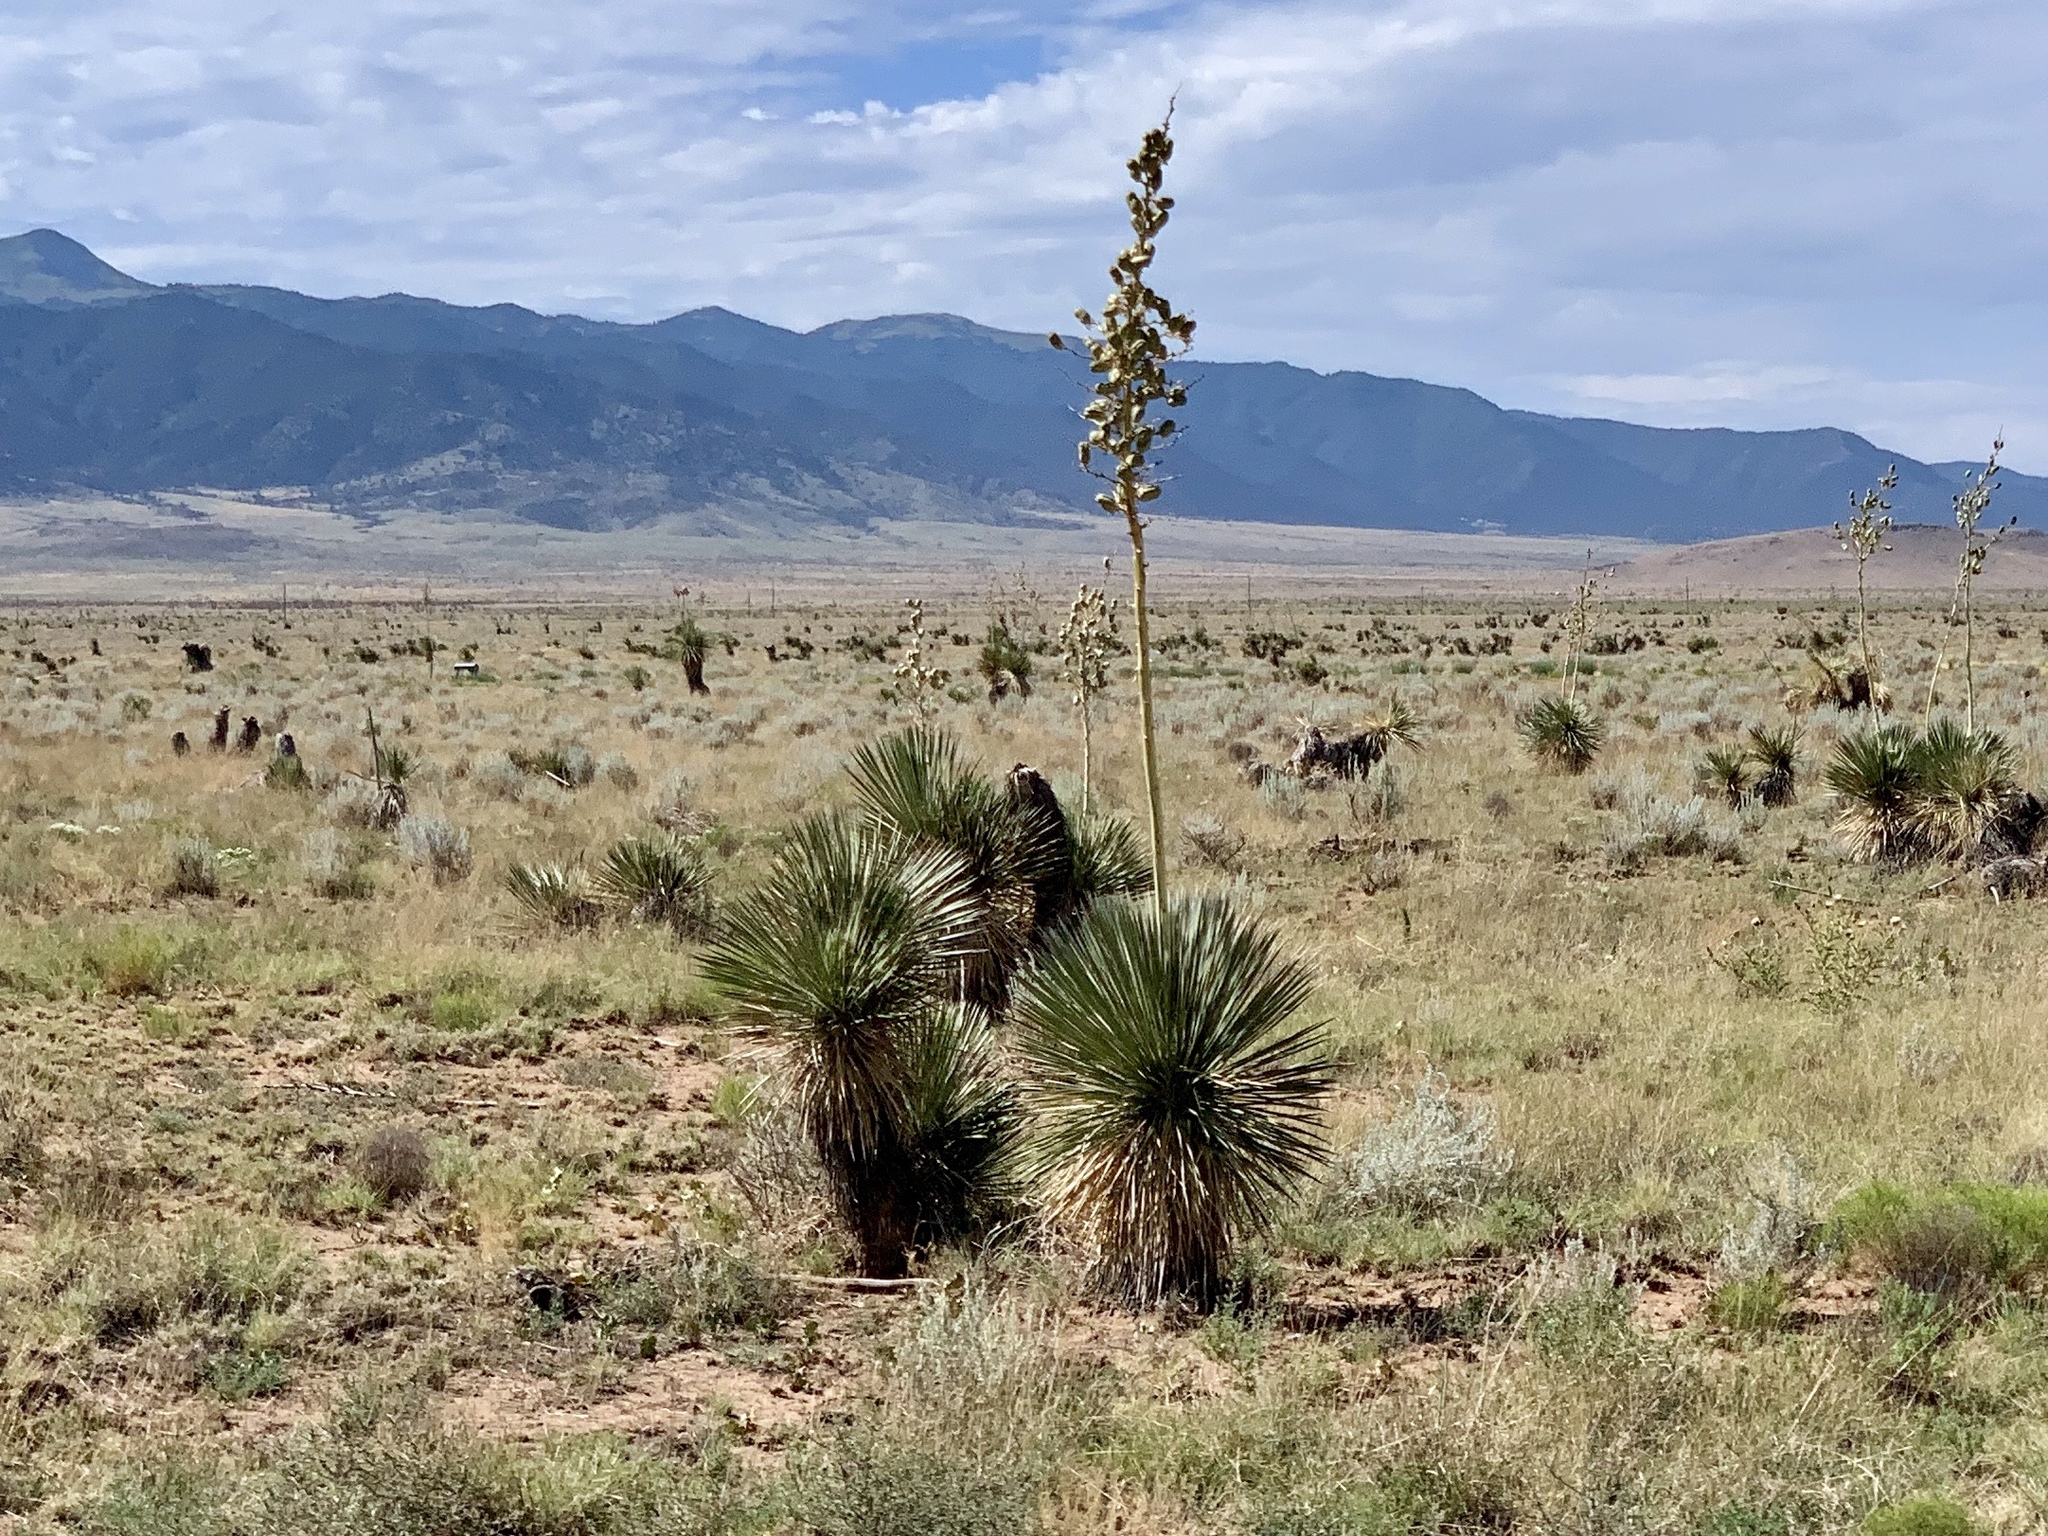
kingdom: Plantae
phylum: Tracheophyta
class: Liliopsida
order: Asparagales
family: Asparagaceae
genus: Yucca
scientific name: Yucca elata
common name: Palmella
